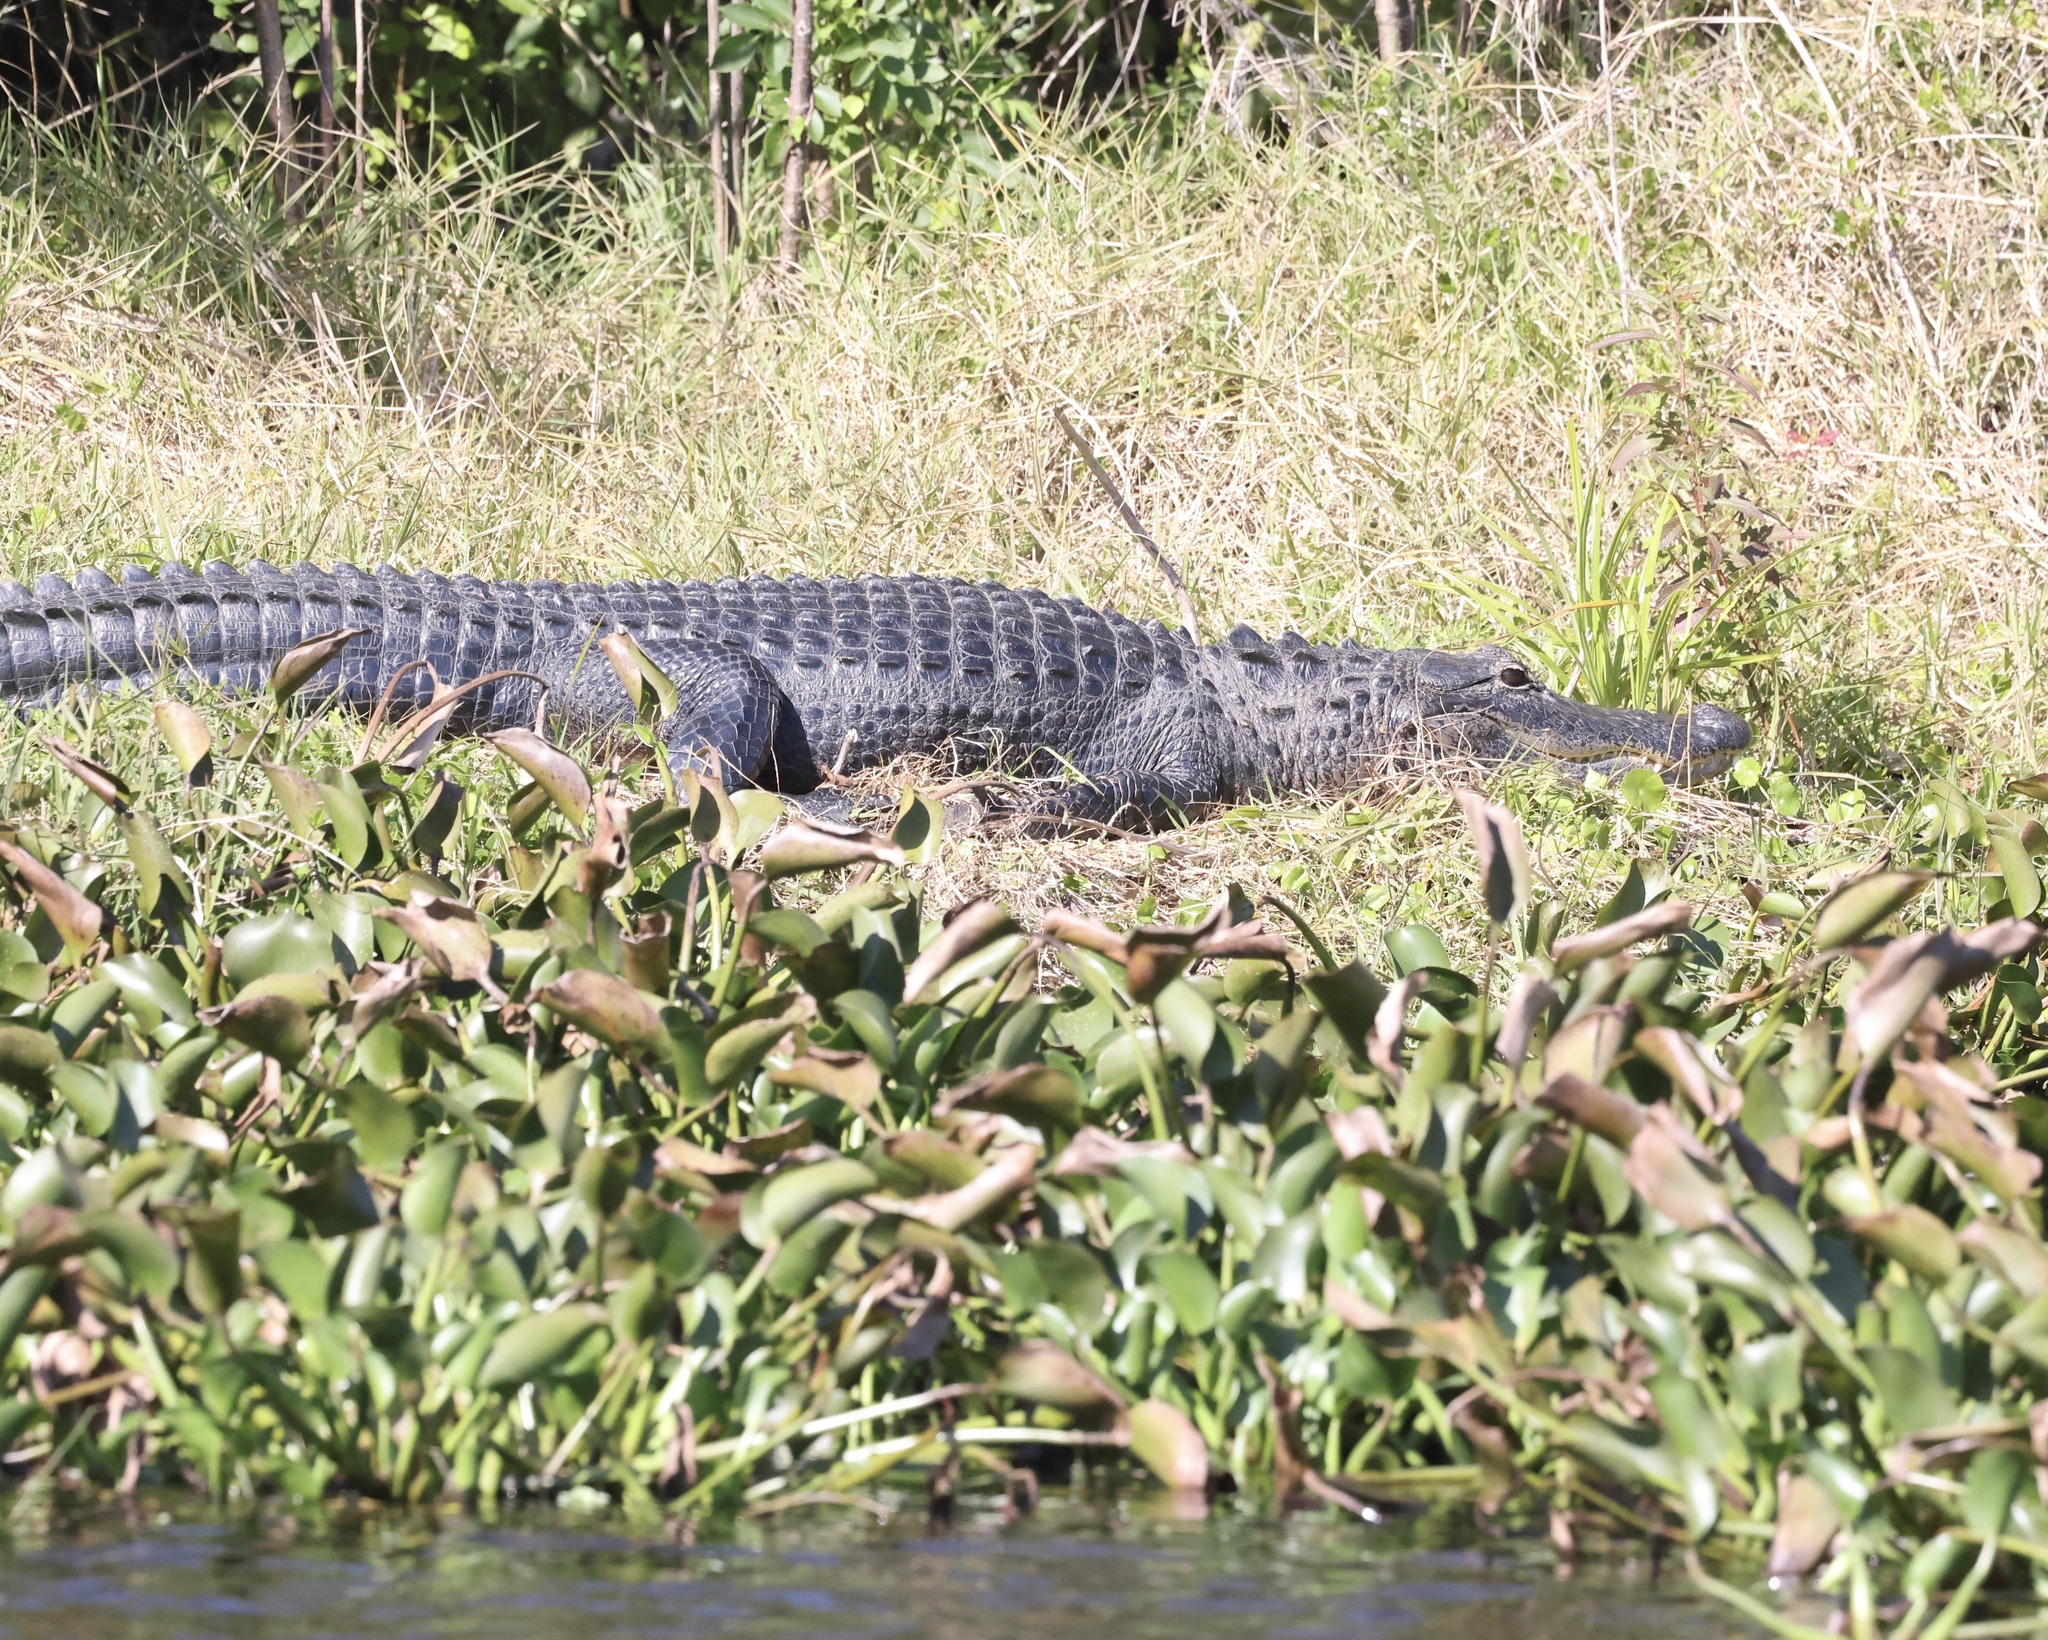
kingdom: Animalia
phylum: Chordata
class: Crocodylia
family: Alligatoridae
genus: Alligator
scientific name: Alligator mississippiensis
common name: American alligator
